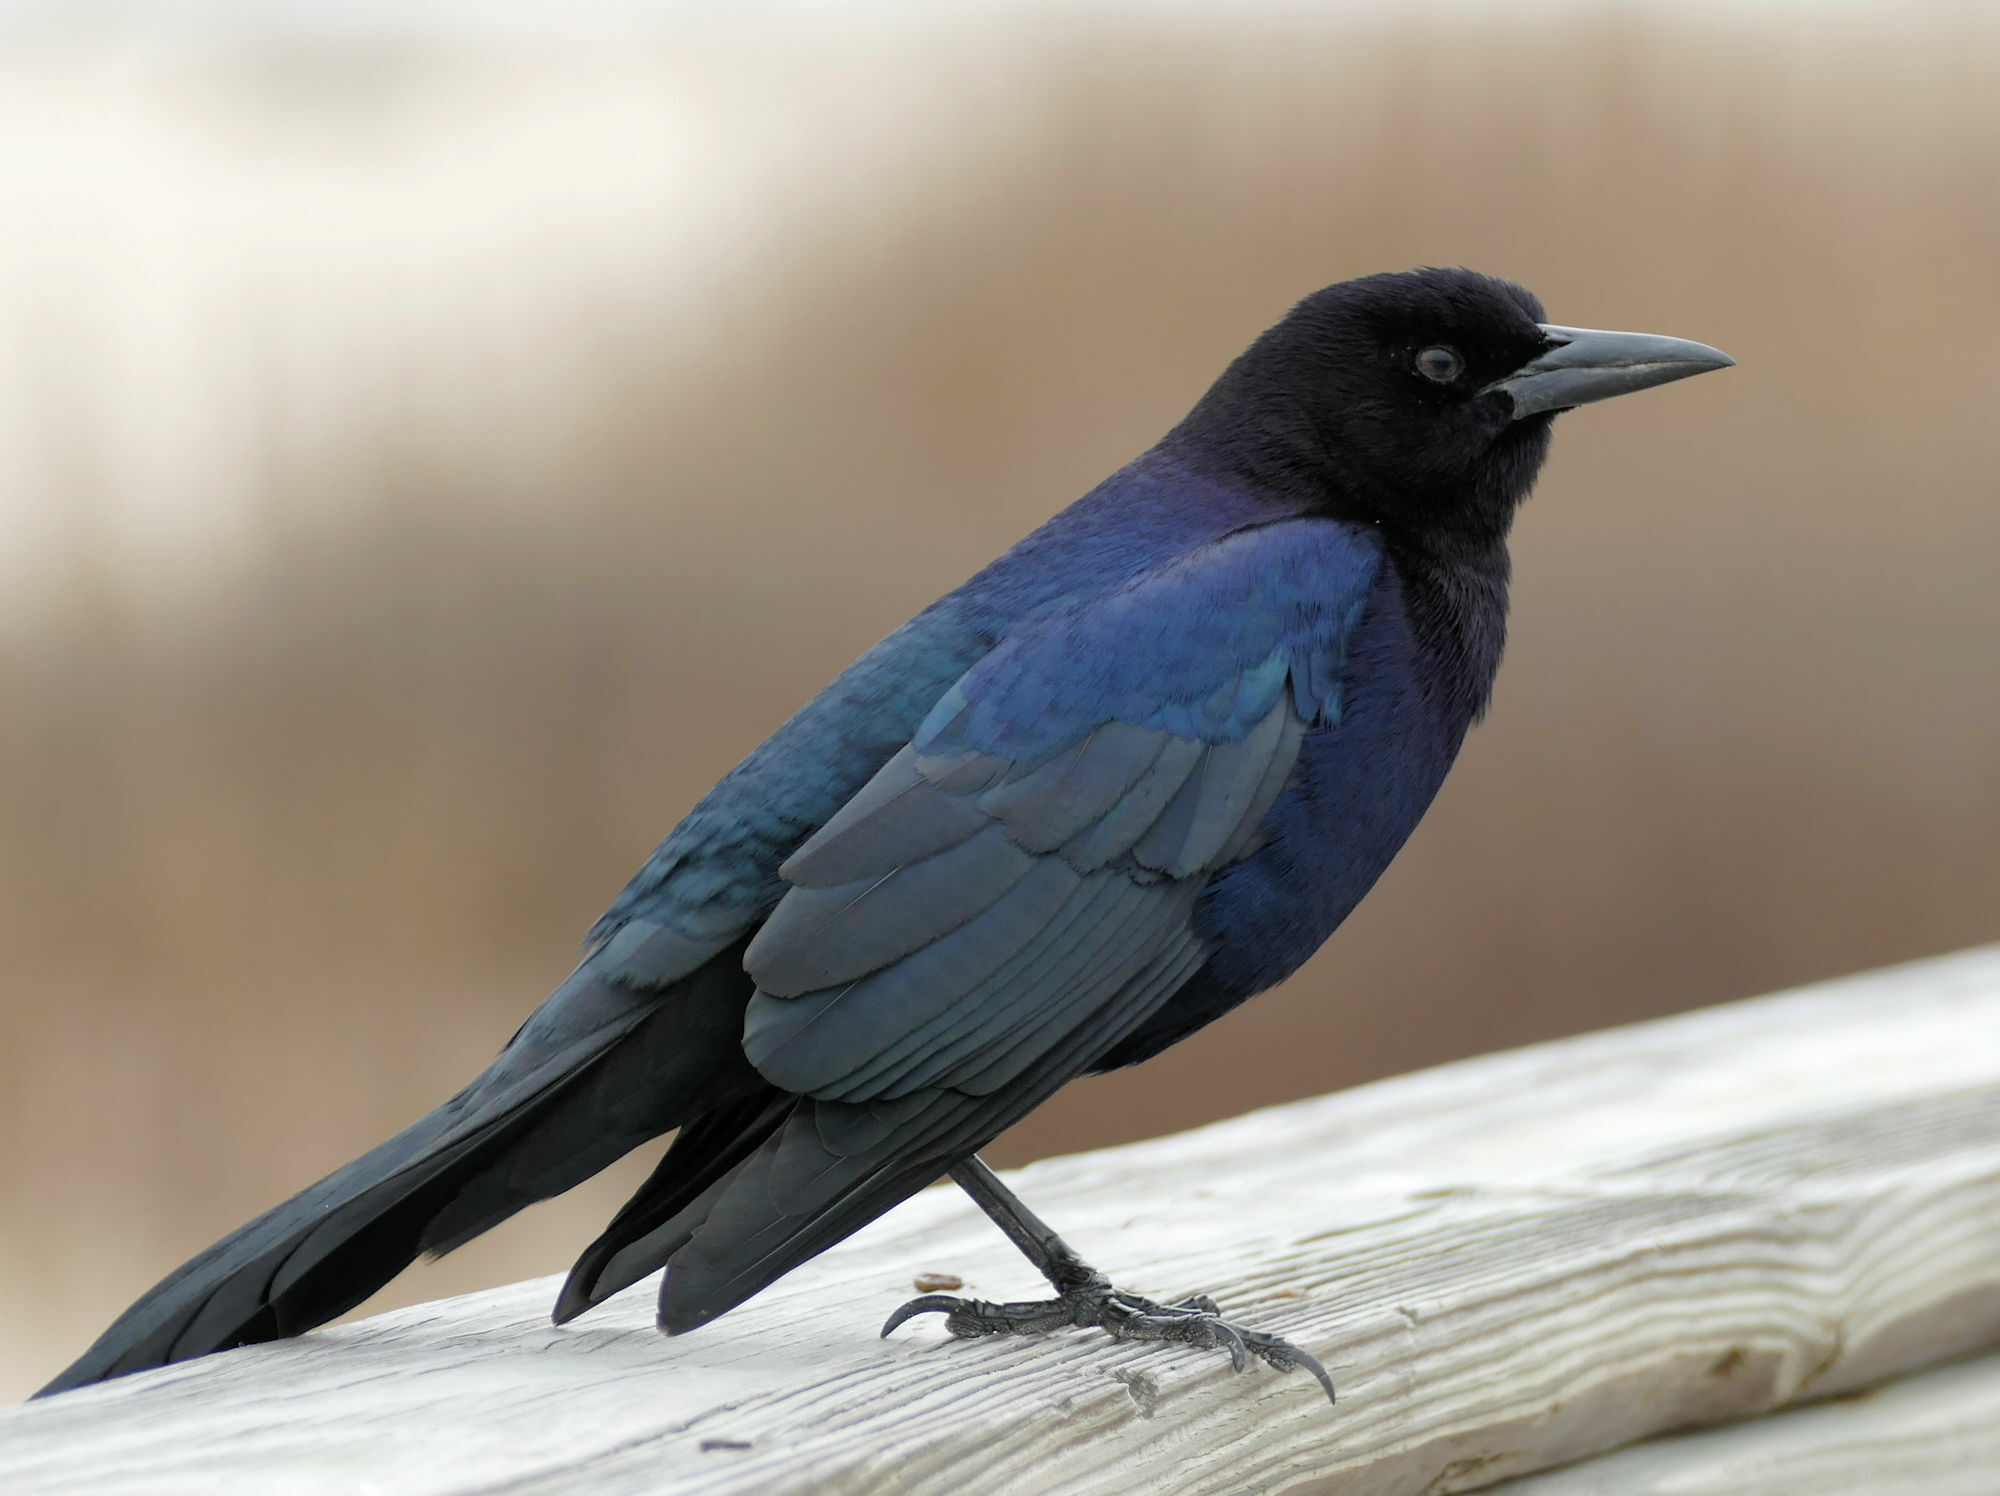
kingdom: Animalia
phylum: Chordata
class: Aves
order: Passeriformes
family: Icteridae
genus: Quiscalus
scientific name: Quiscalus major
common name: Boat-tailed grackle
